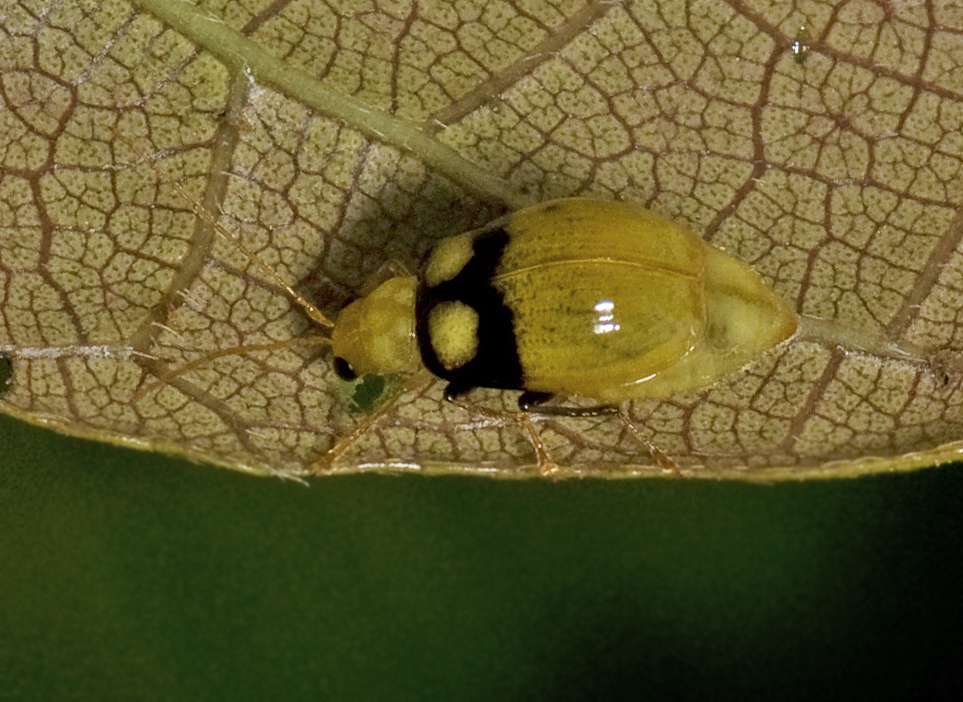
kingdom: Animalia
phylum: Arthropoda
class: Insecta
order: Coleoptera
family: Chrysomelidae
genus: Monolepta
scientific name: Monolepta
